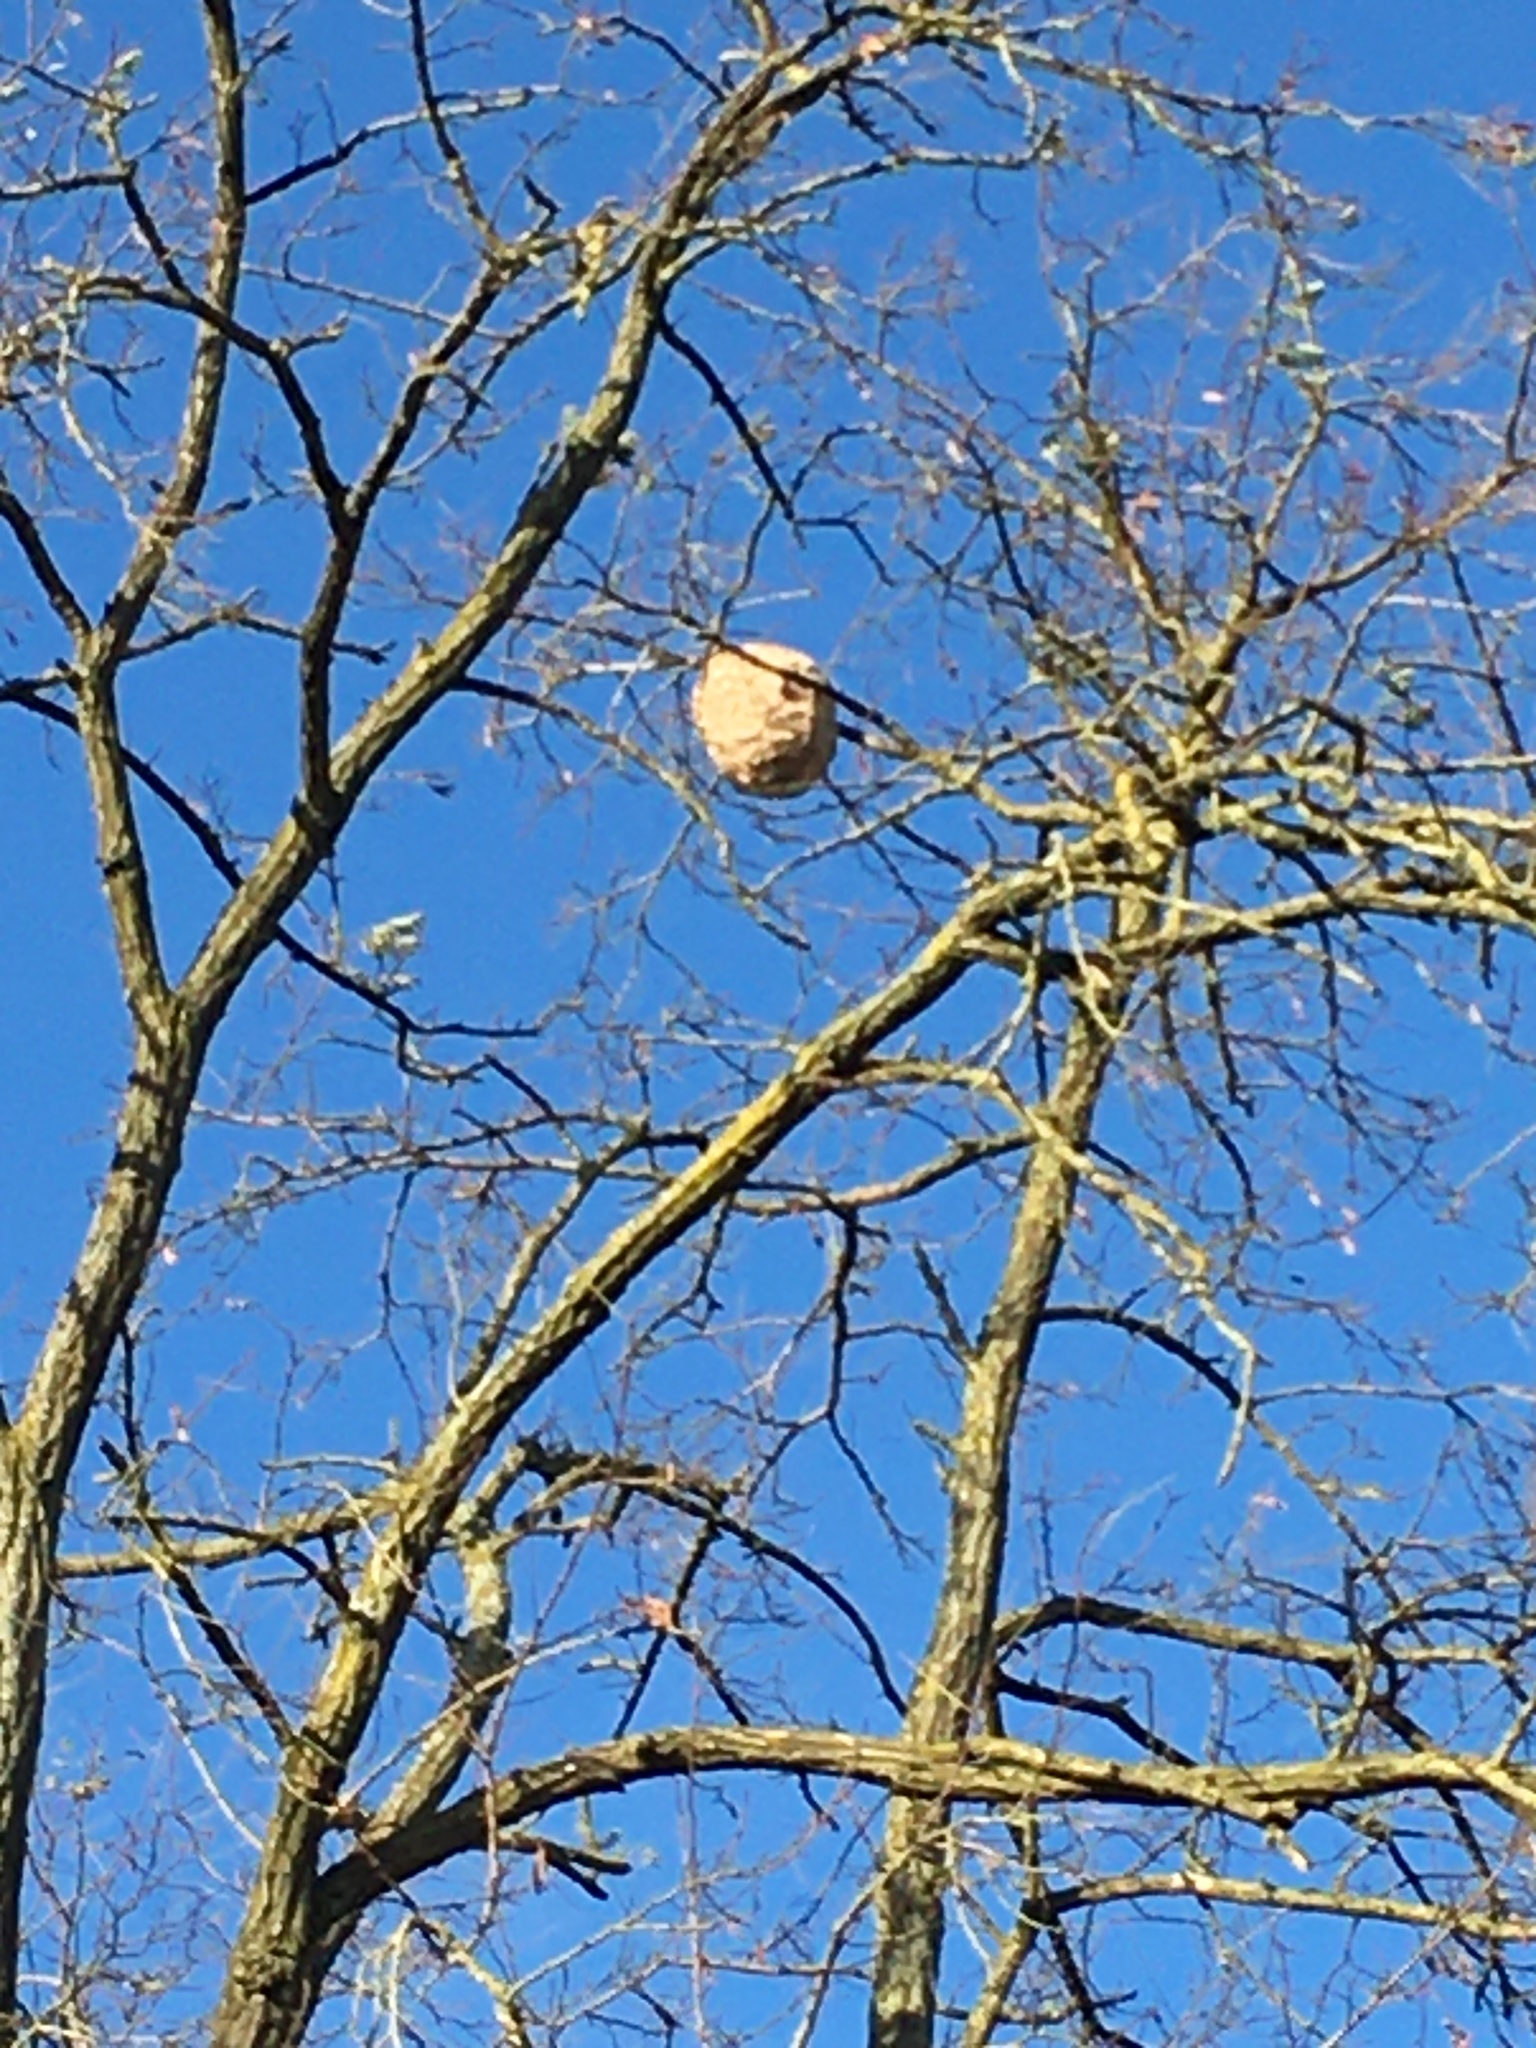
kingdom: Animalia
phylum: Arthropoda
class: Insecta
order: Hymenoptera
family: Vespidae
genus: Vespa
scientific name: Vespa velutina
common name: Asian hornet
